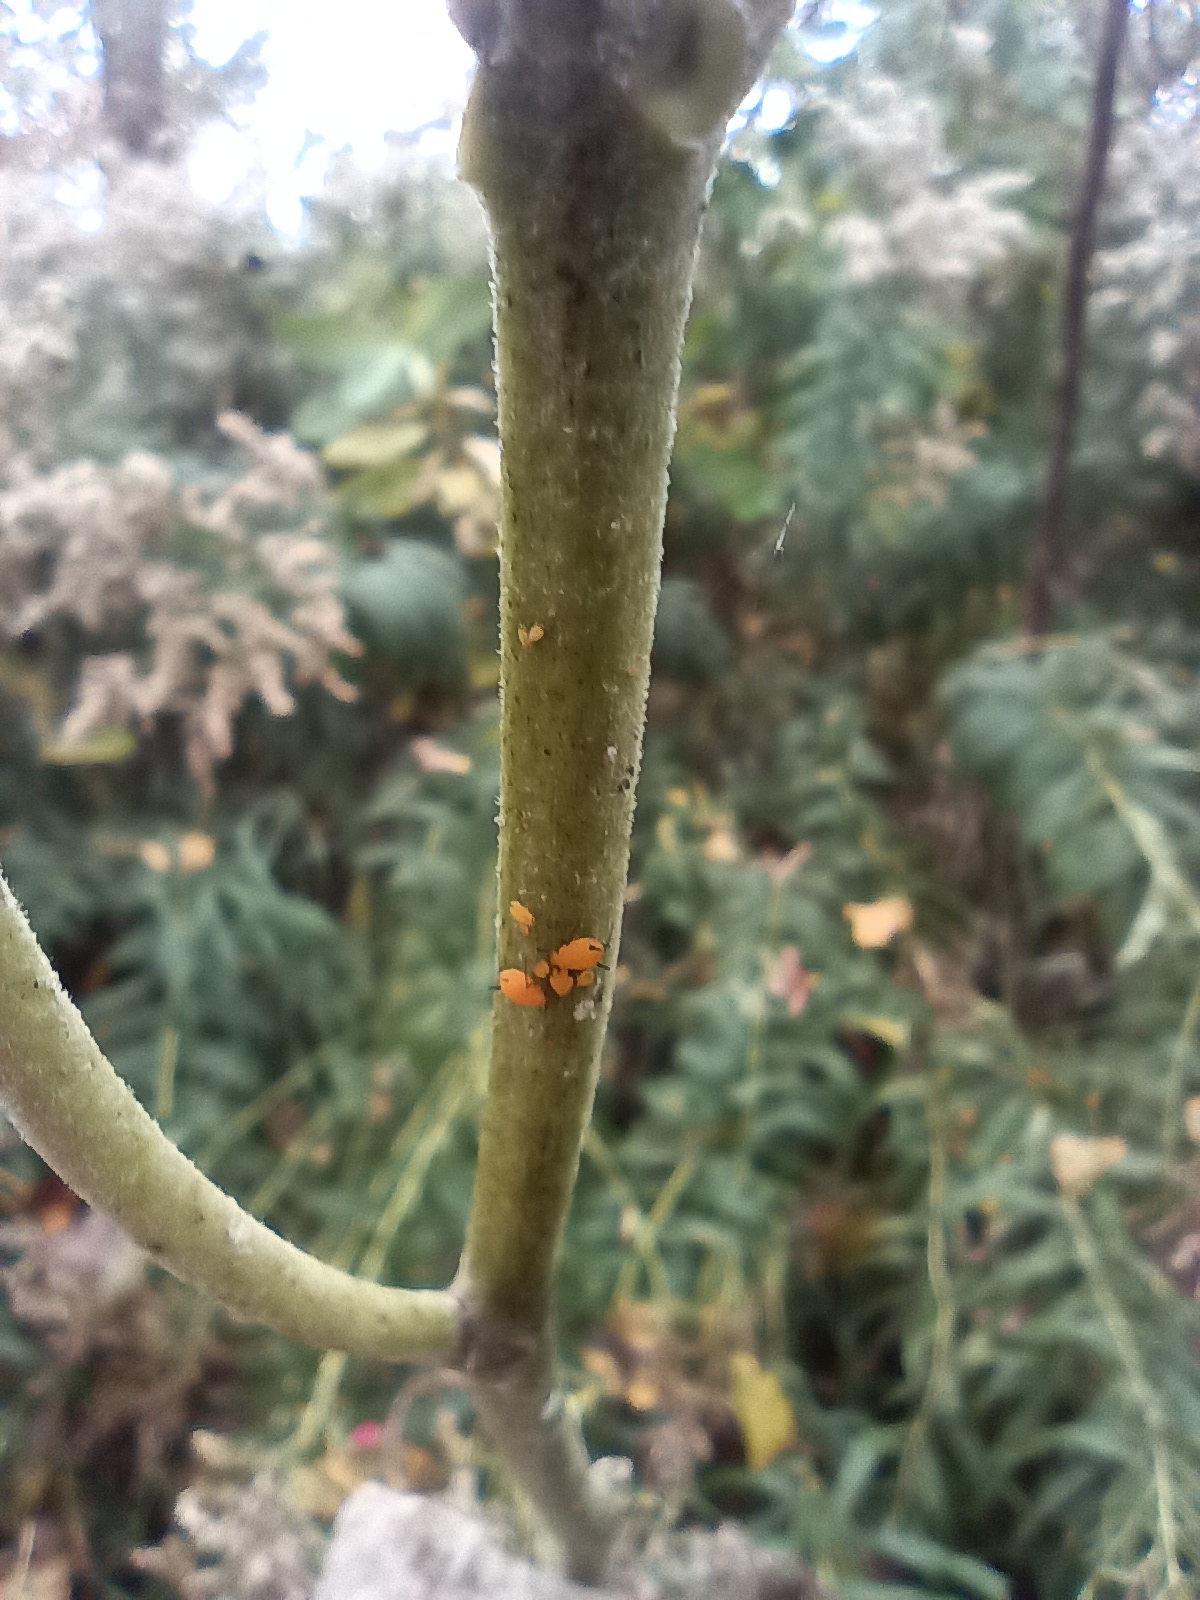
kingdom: Animalia
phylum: Arthropoda
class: Insecta
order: Hemiptera
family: Aphididae
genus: Aphis
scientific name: Aphis nerii
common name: Oleander aphid
